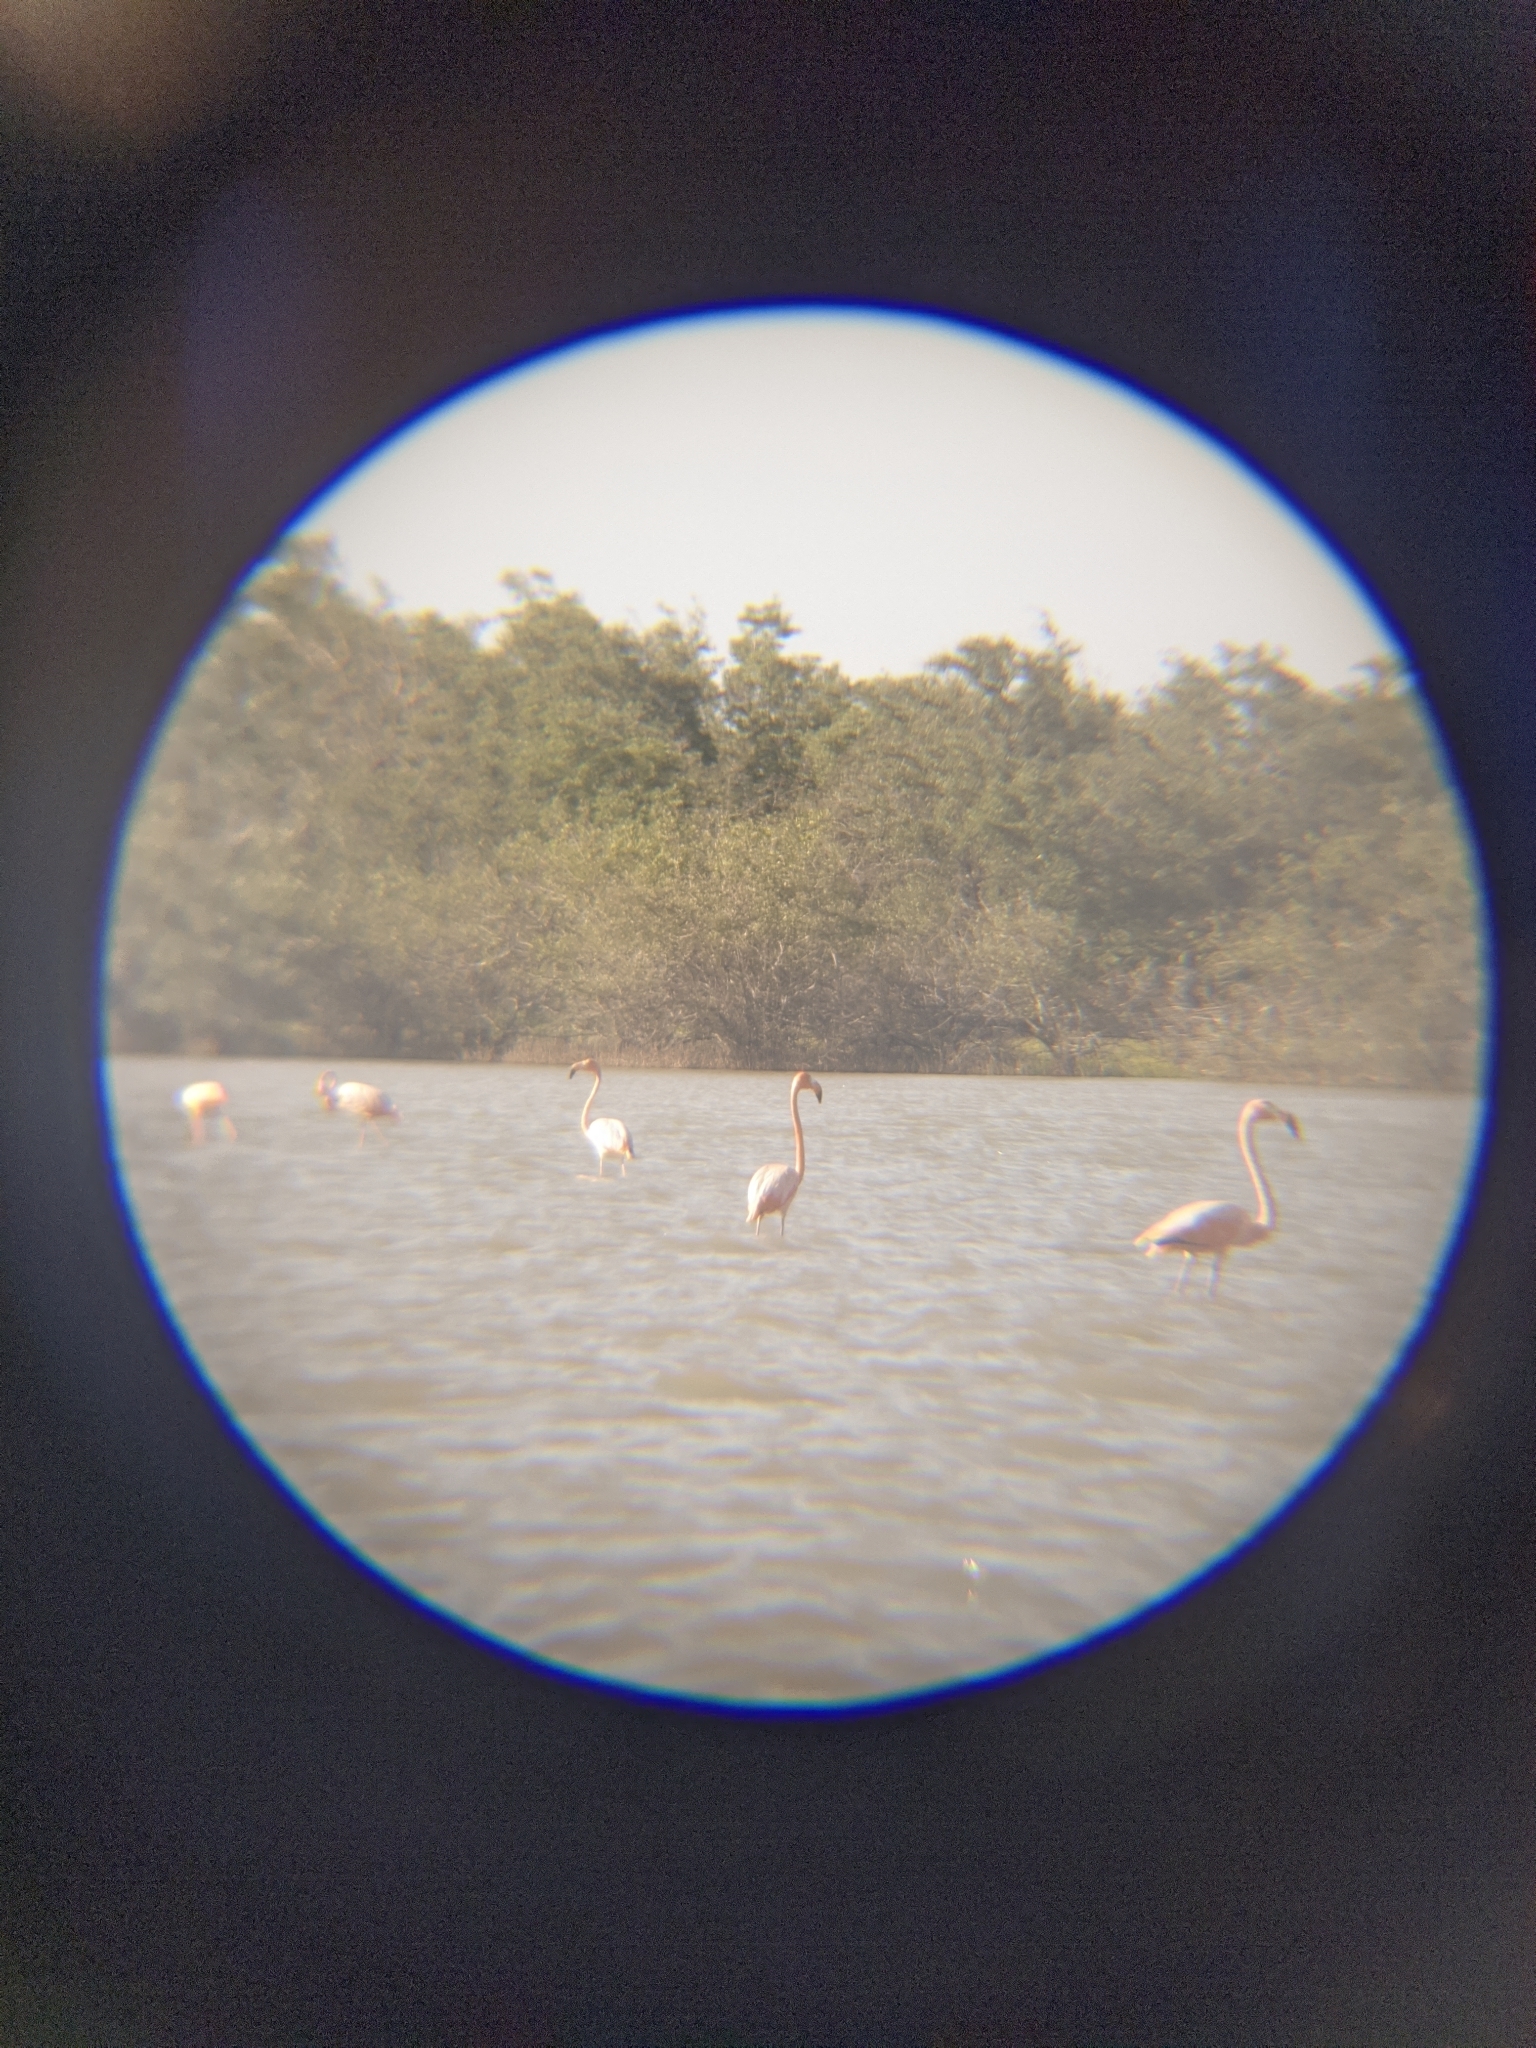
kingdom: Animalia
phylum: Chordata
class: Aves
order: Phoenicopteriformes
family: Phoenicopteridae
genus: Phoenicopterus
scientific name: Phoenicopterus ruber
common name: American flamingo
